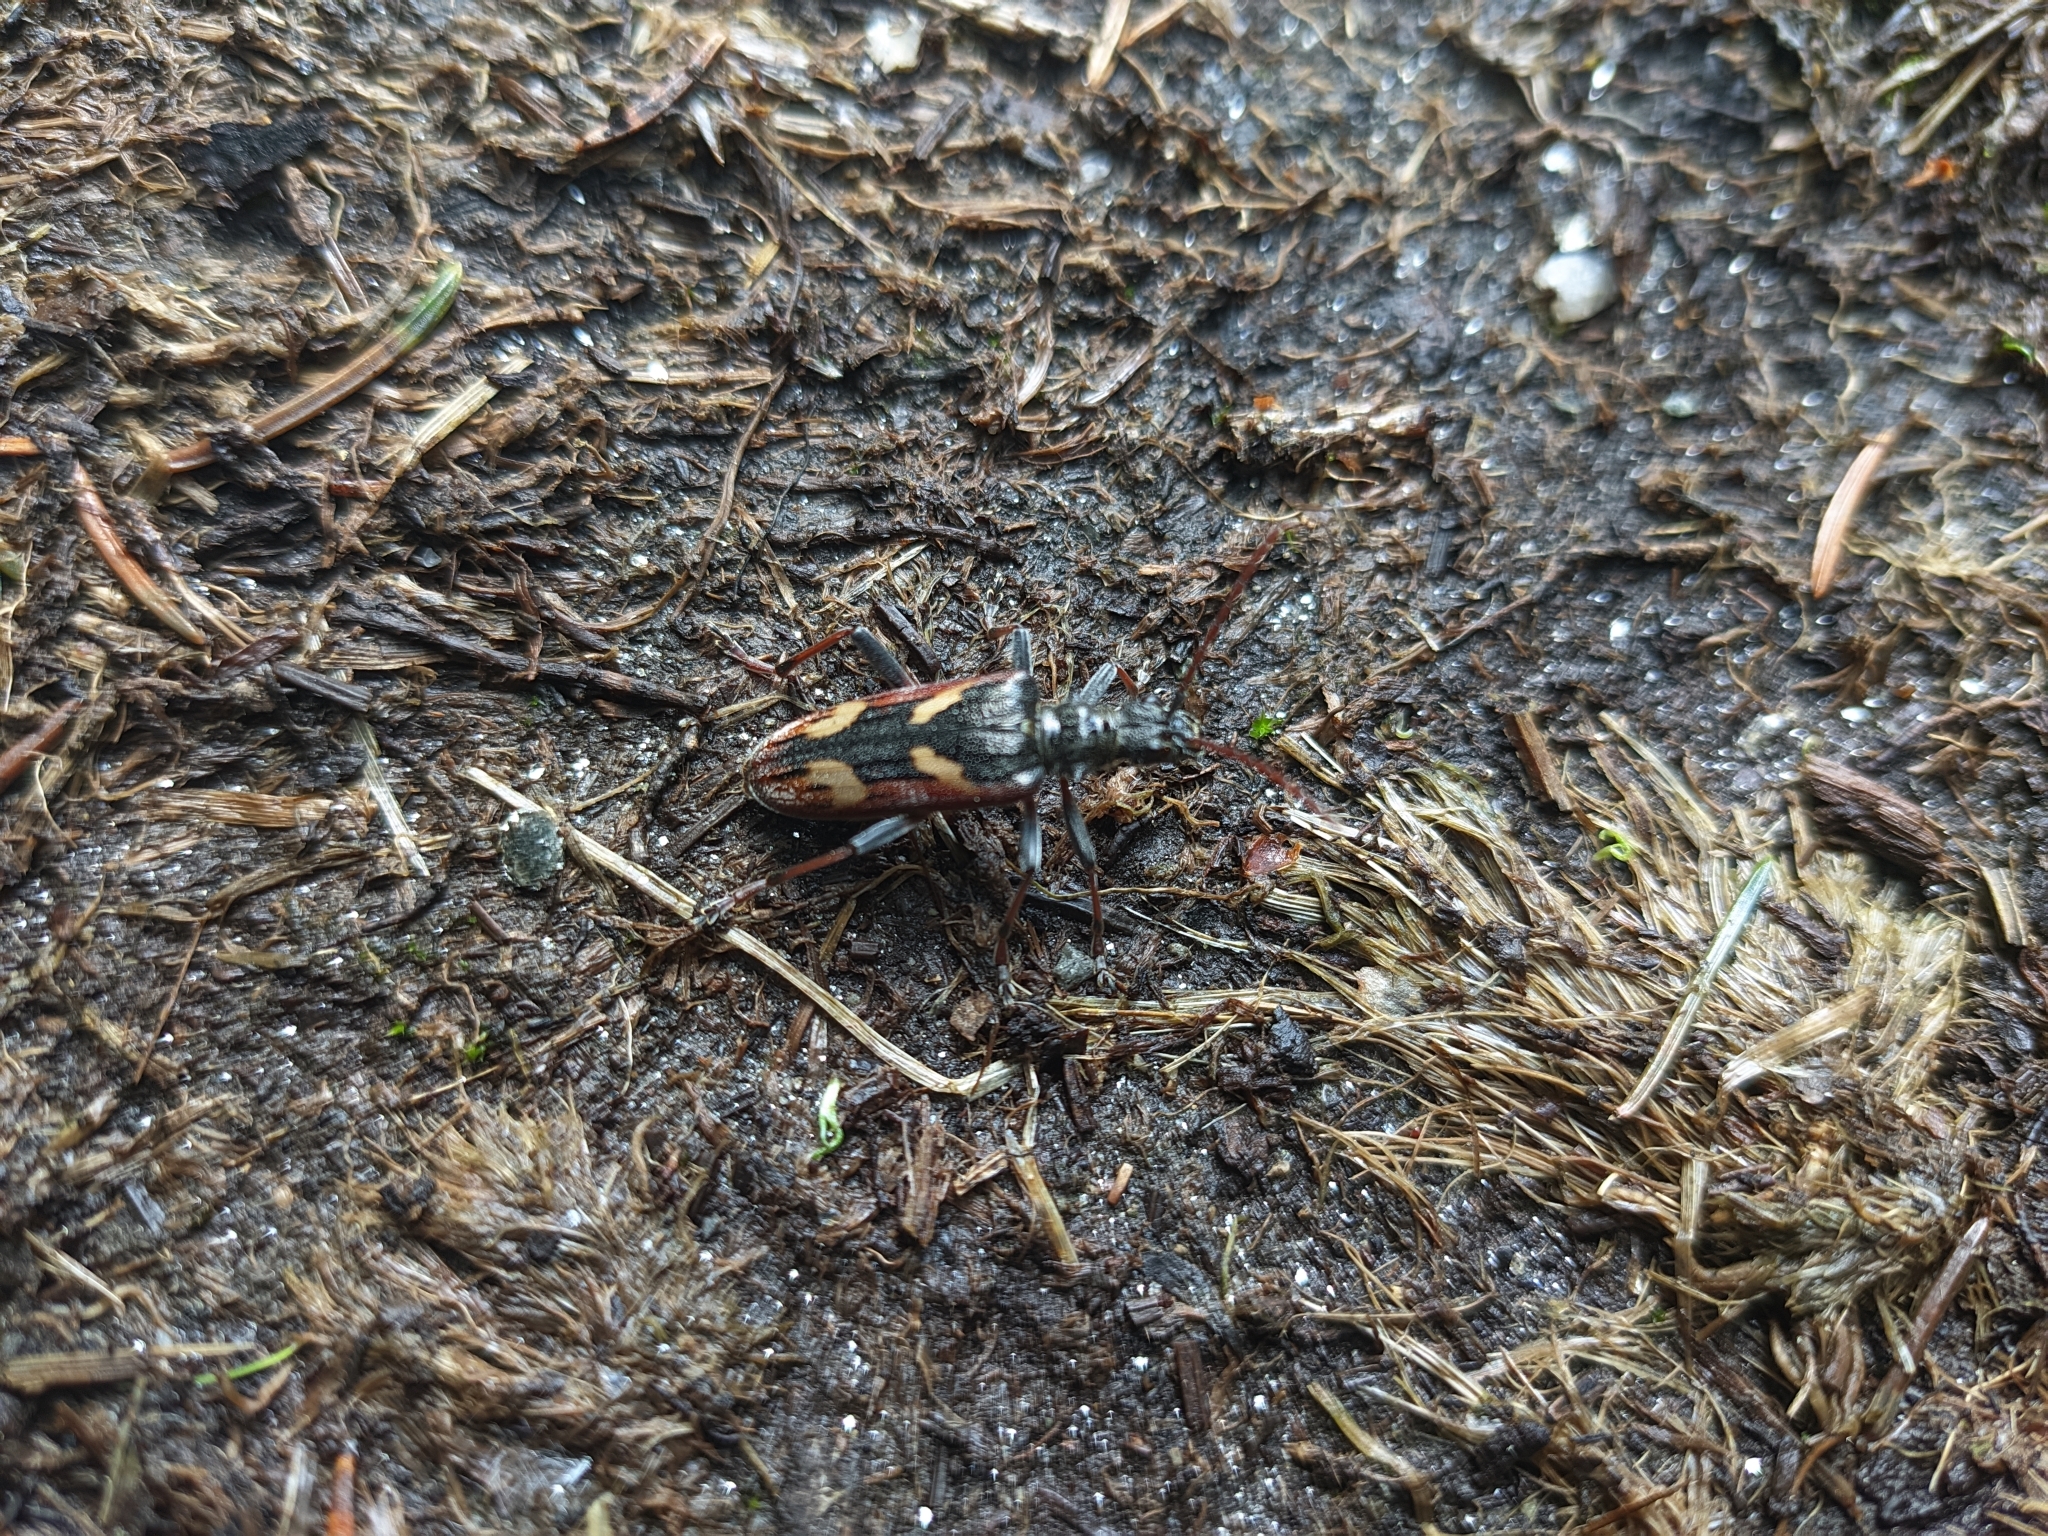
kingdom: Animalia
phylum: Arthropoda
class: Insecta
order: Coleoptera
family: Cerambycidae
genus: Rhagium
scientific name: Rhagium bifasciatum
